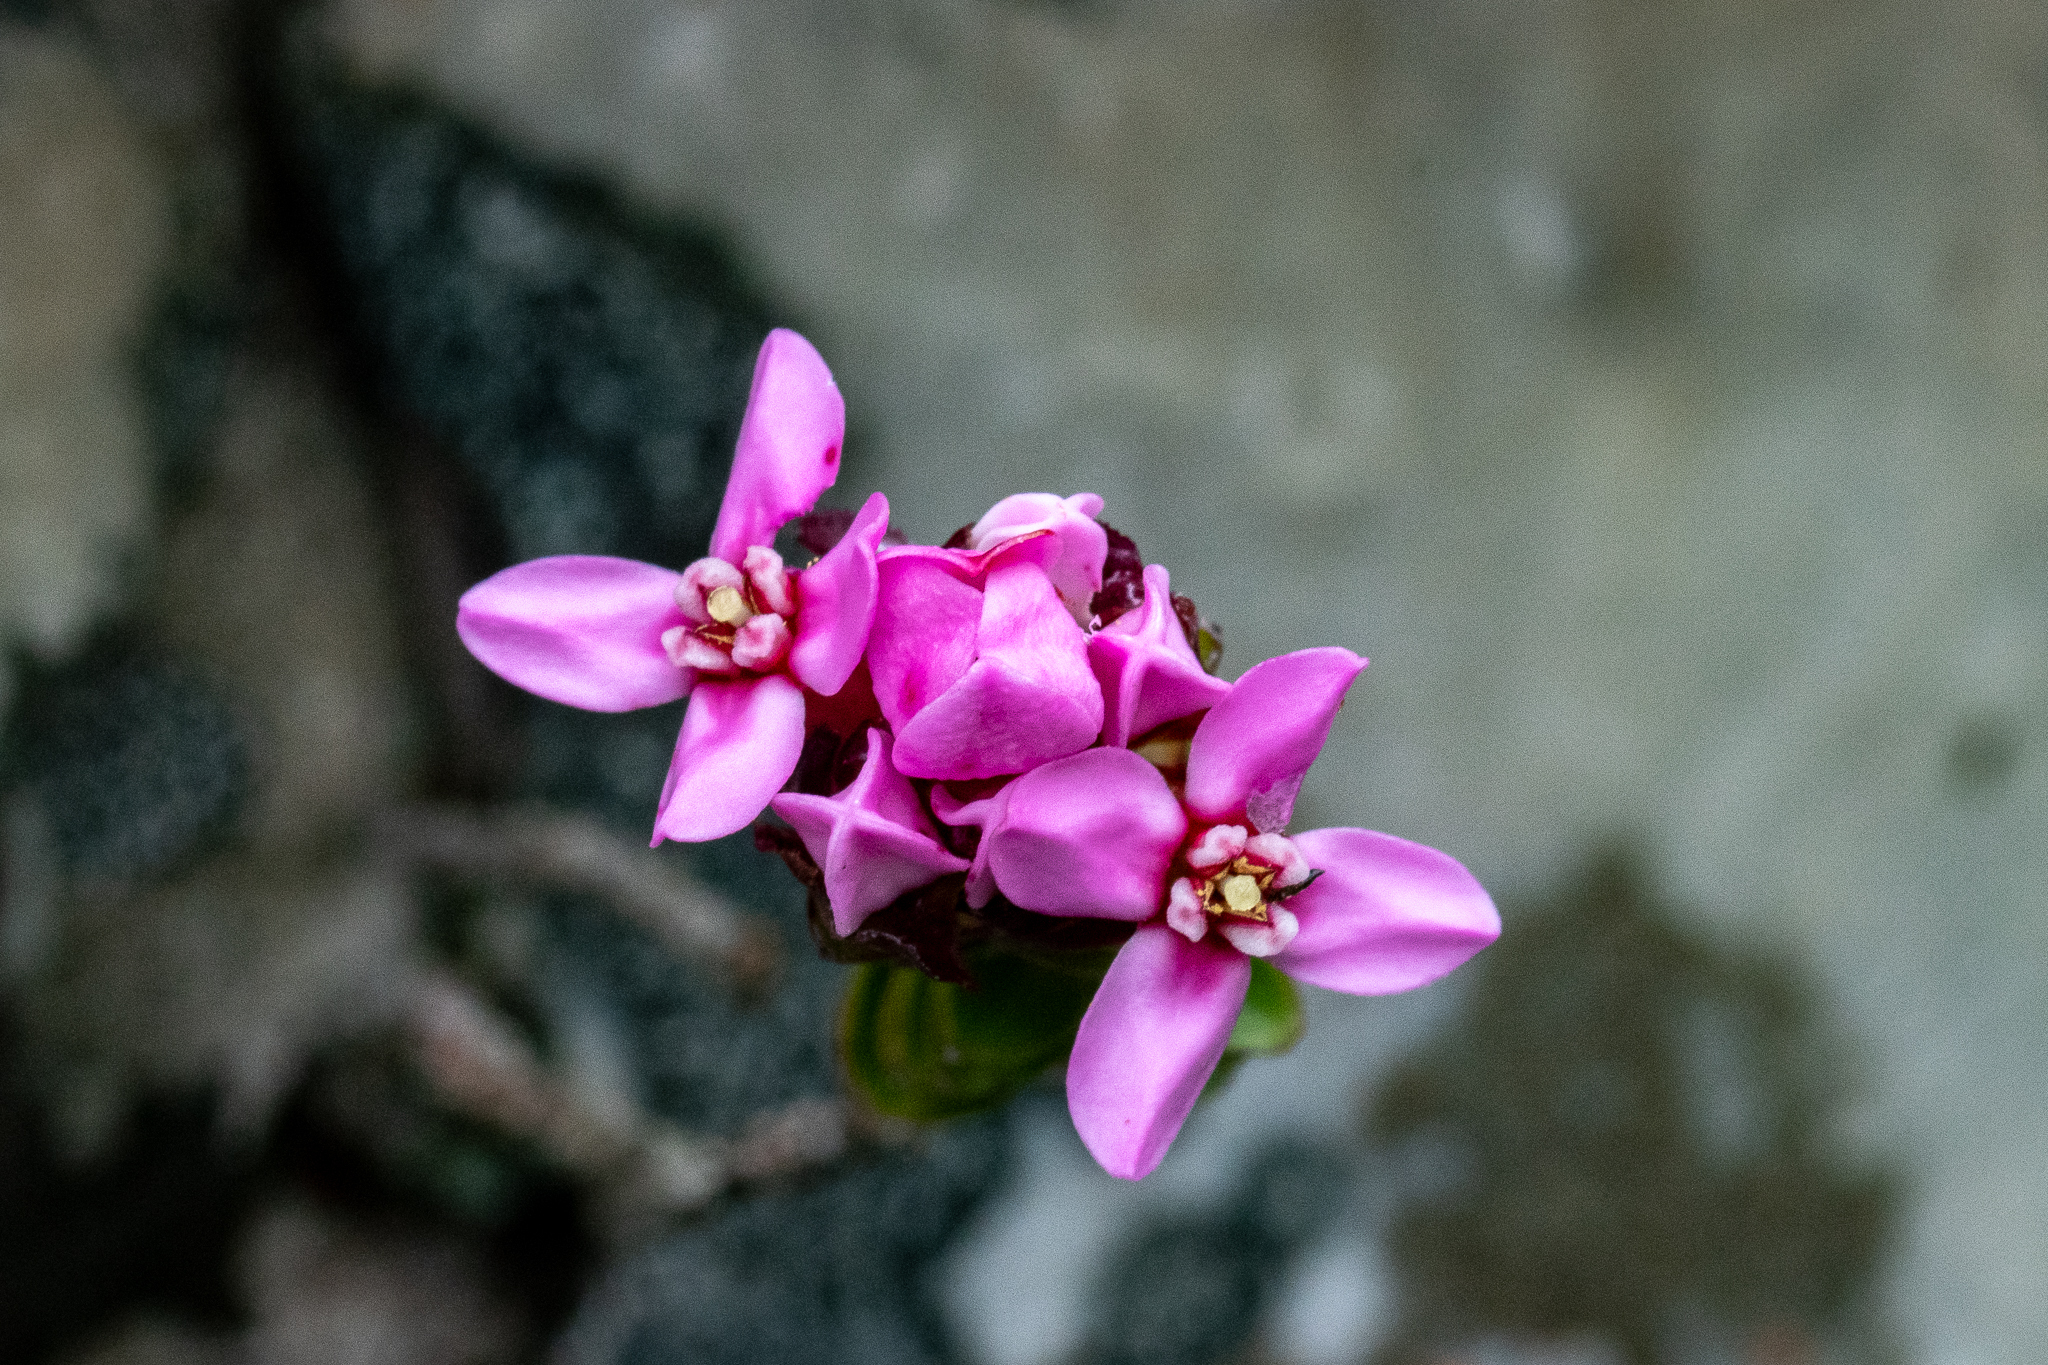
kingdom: Plantae
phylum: Tracheophyta
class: Magnoliopsida
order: Myrtales
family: Penaeaceae
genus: Sonderothamnus
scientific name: Sonderothamnus petraeus
